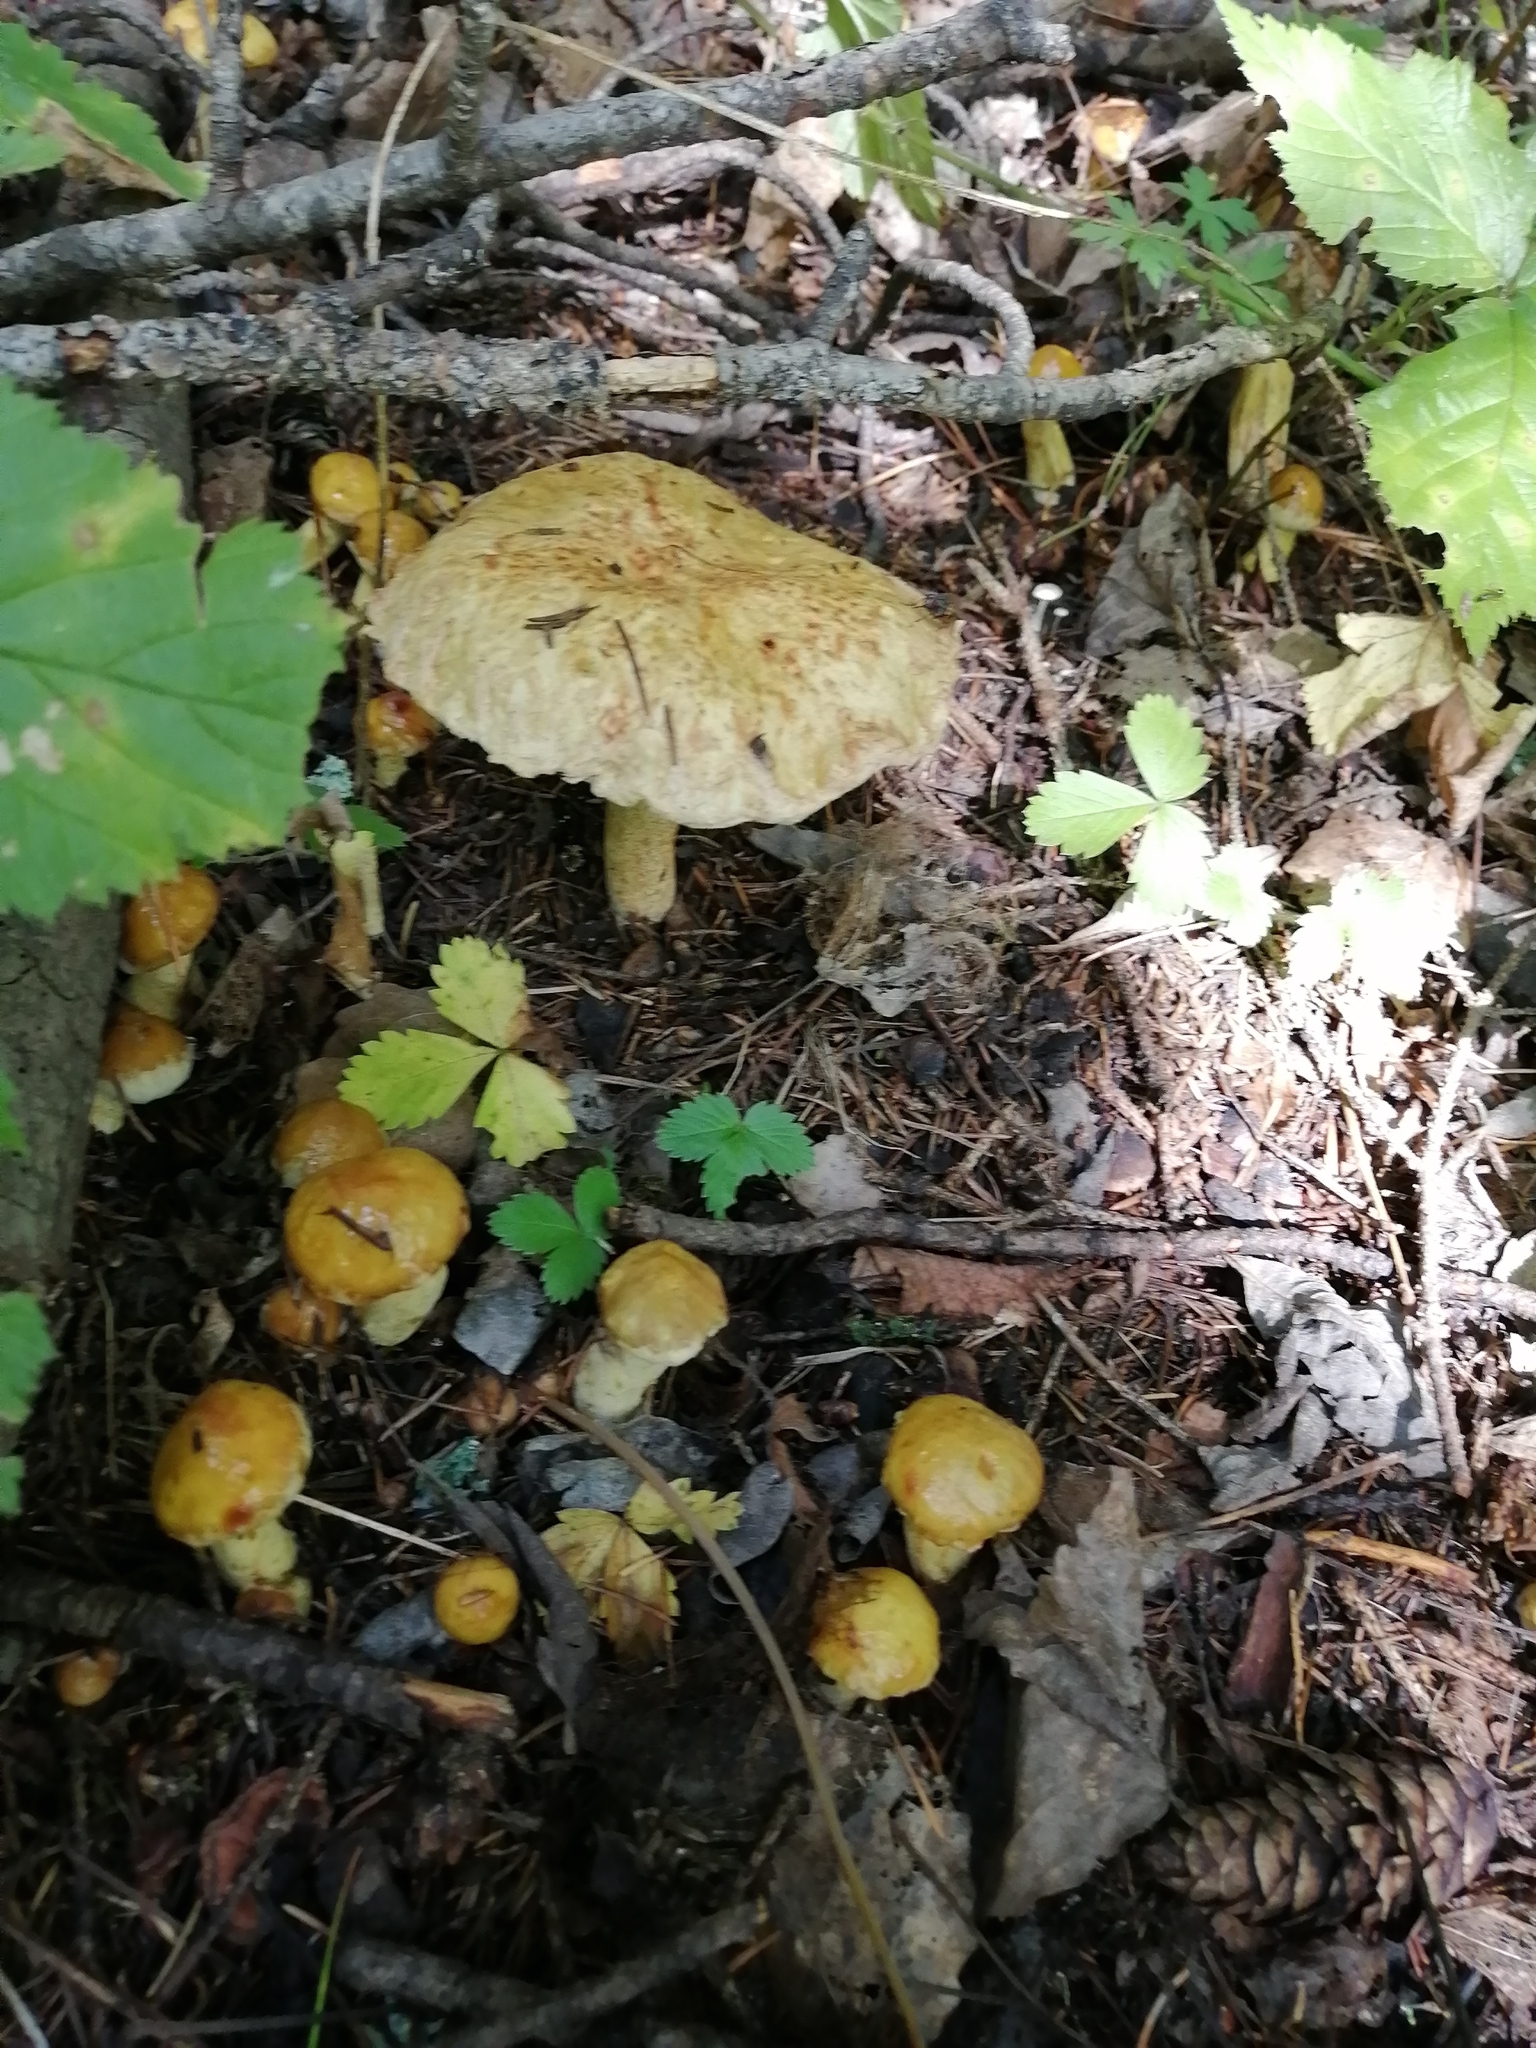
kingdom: Fungi
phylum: Basidiomycota
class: Agaricomycetes
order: Boletales
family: Suillaceae
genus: Suillus
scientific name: Suillus americanus
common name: Chicken fat mushroom
